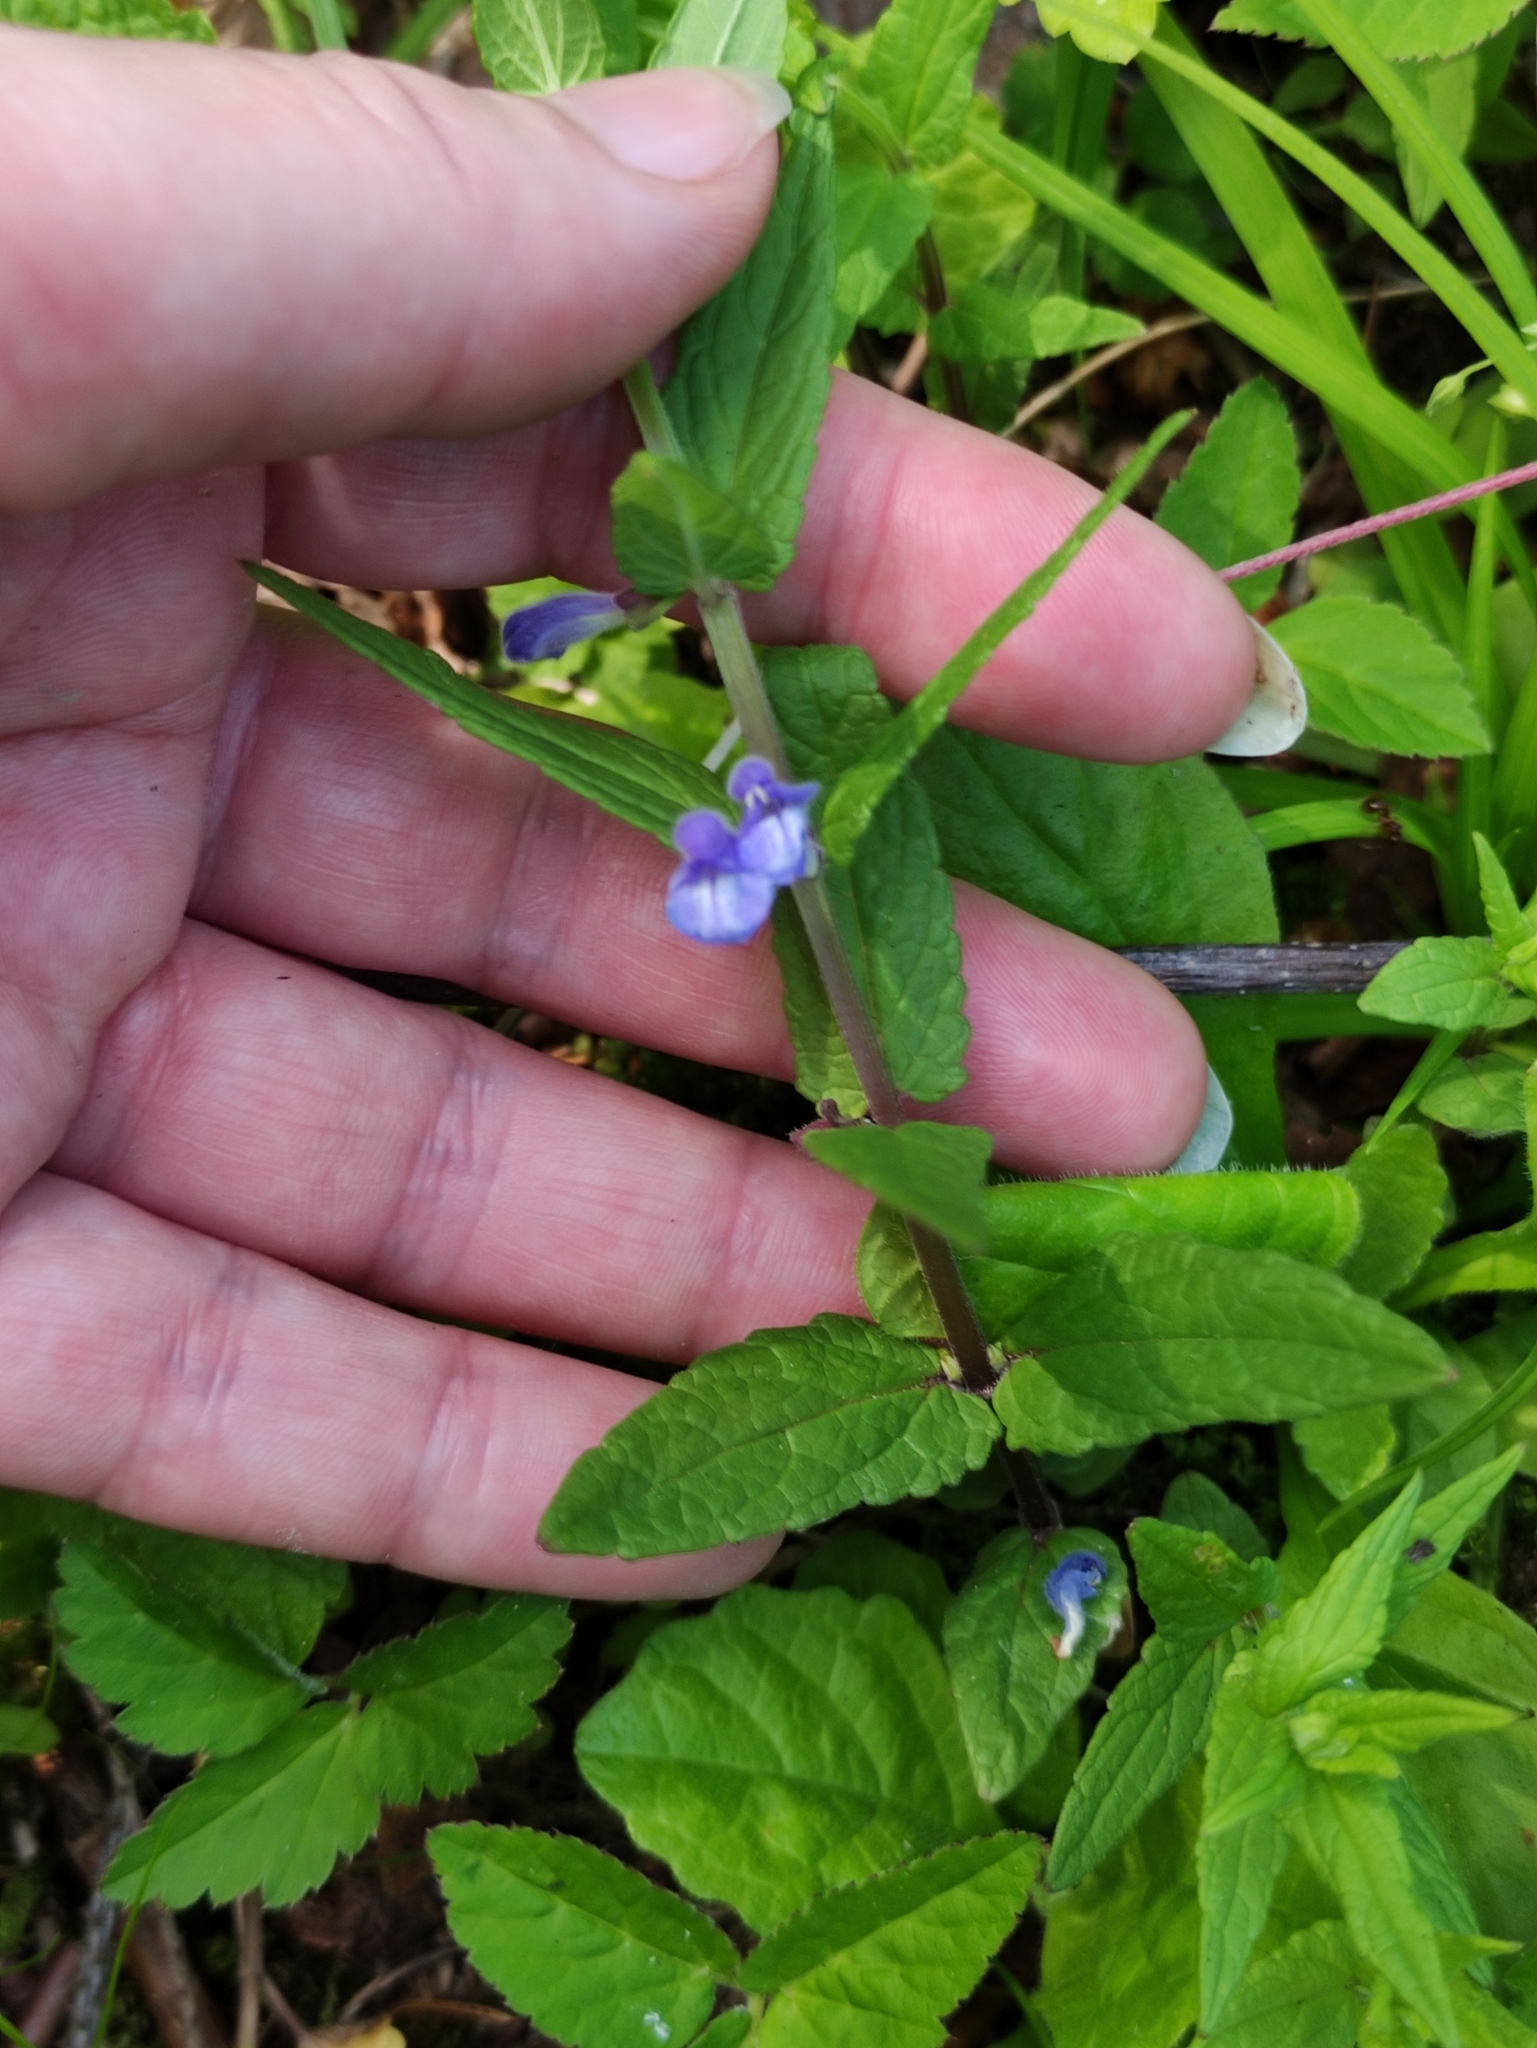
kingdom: Plantae
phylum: Tracheophyta
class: Magnoliopsida
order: Lamiales
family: Lamiaceae
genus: Scutellaria
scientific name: Scutellaria galericulata
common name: Skullcap
